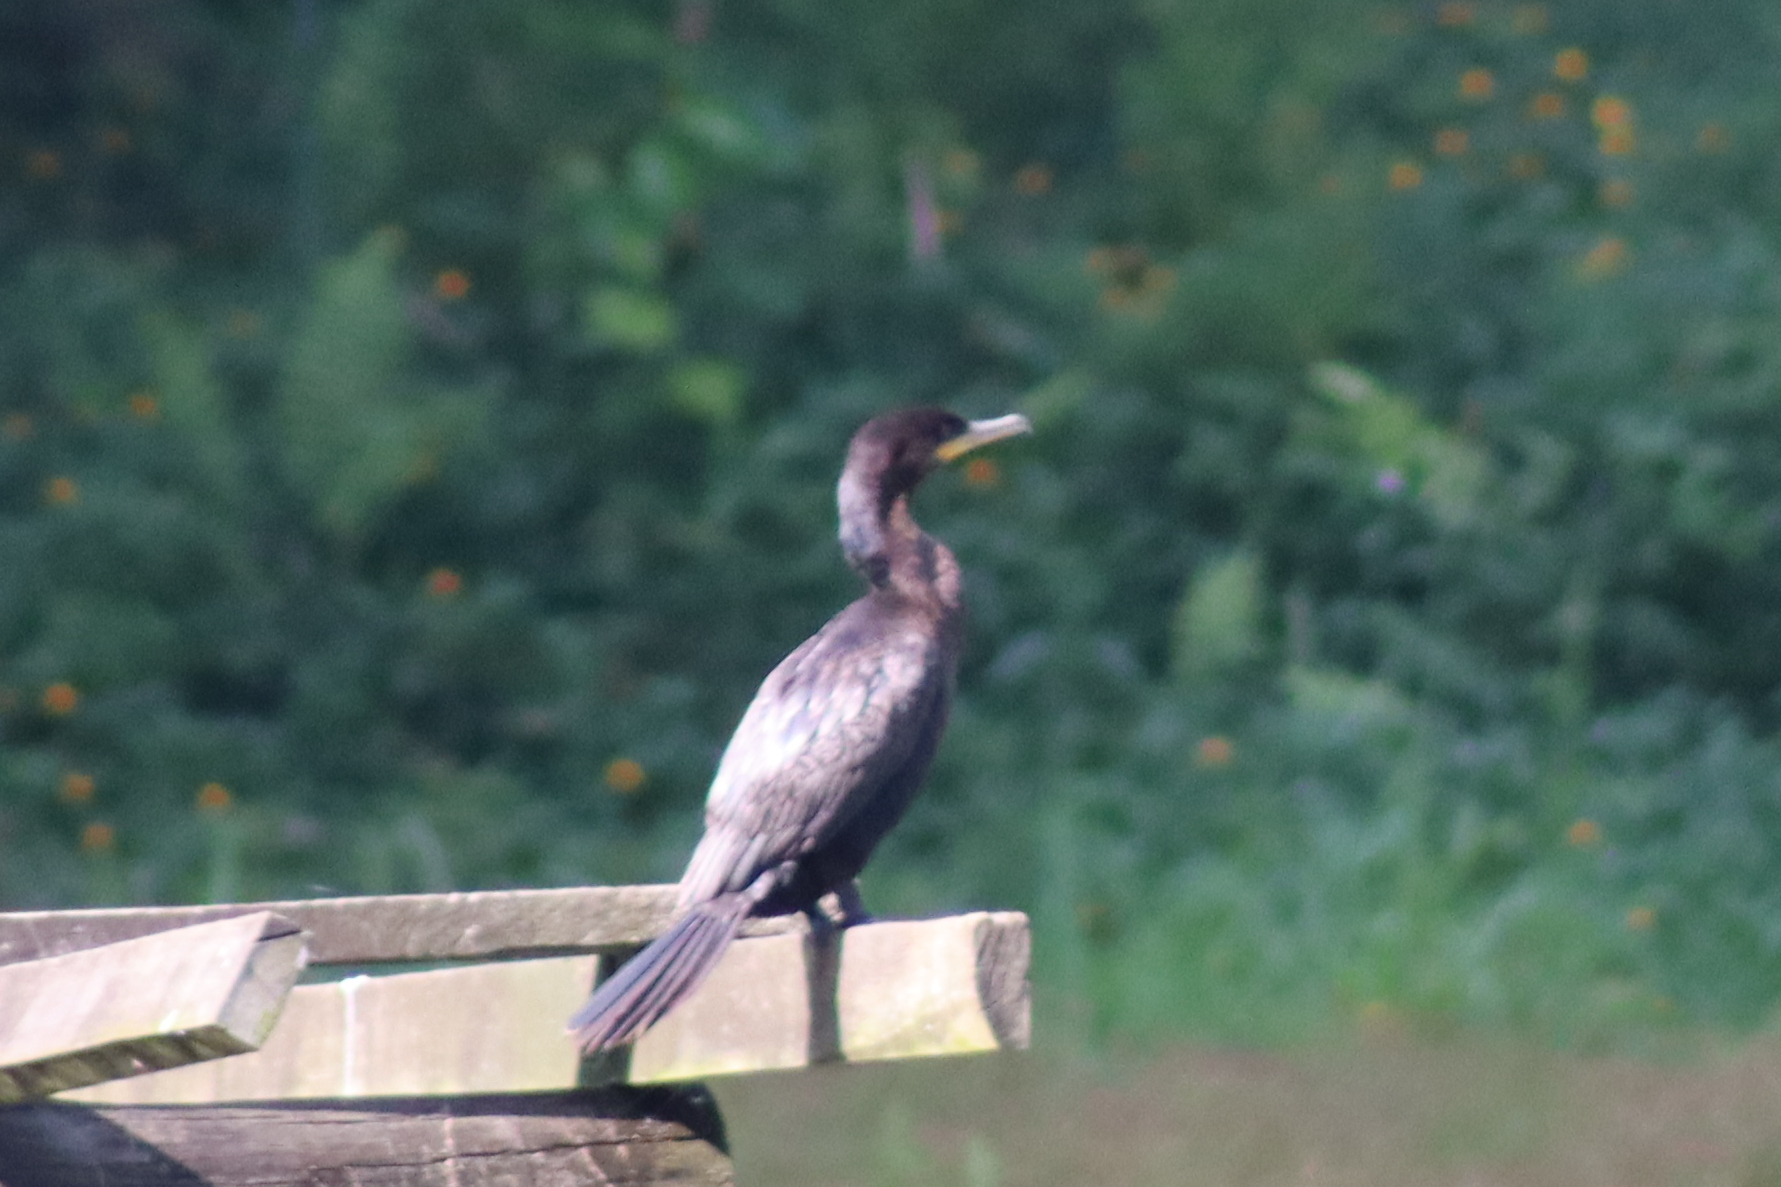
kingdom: Animalia
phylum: Chordata
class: Aves
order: Suliformes
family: Phalacrocoracidae
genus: Phalacrocorax
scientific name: Phalacrocorax brasilianus
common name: Neotropic cormorant
